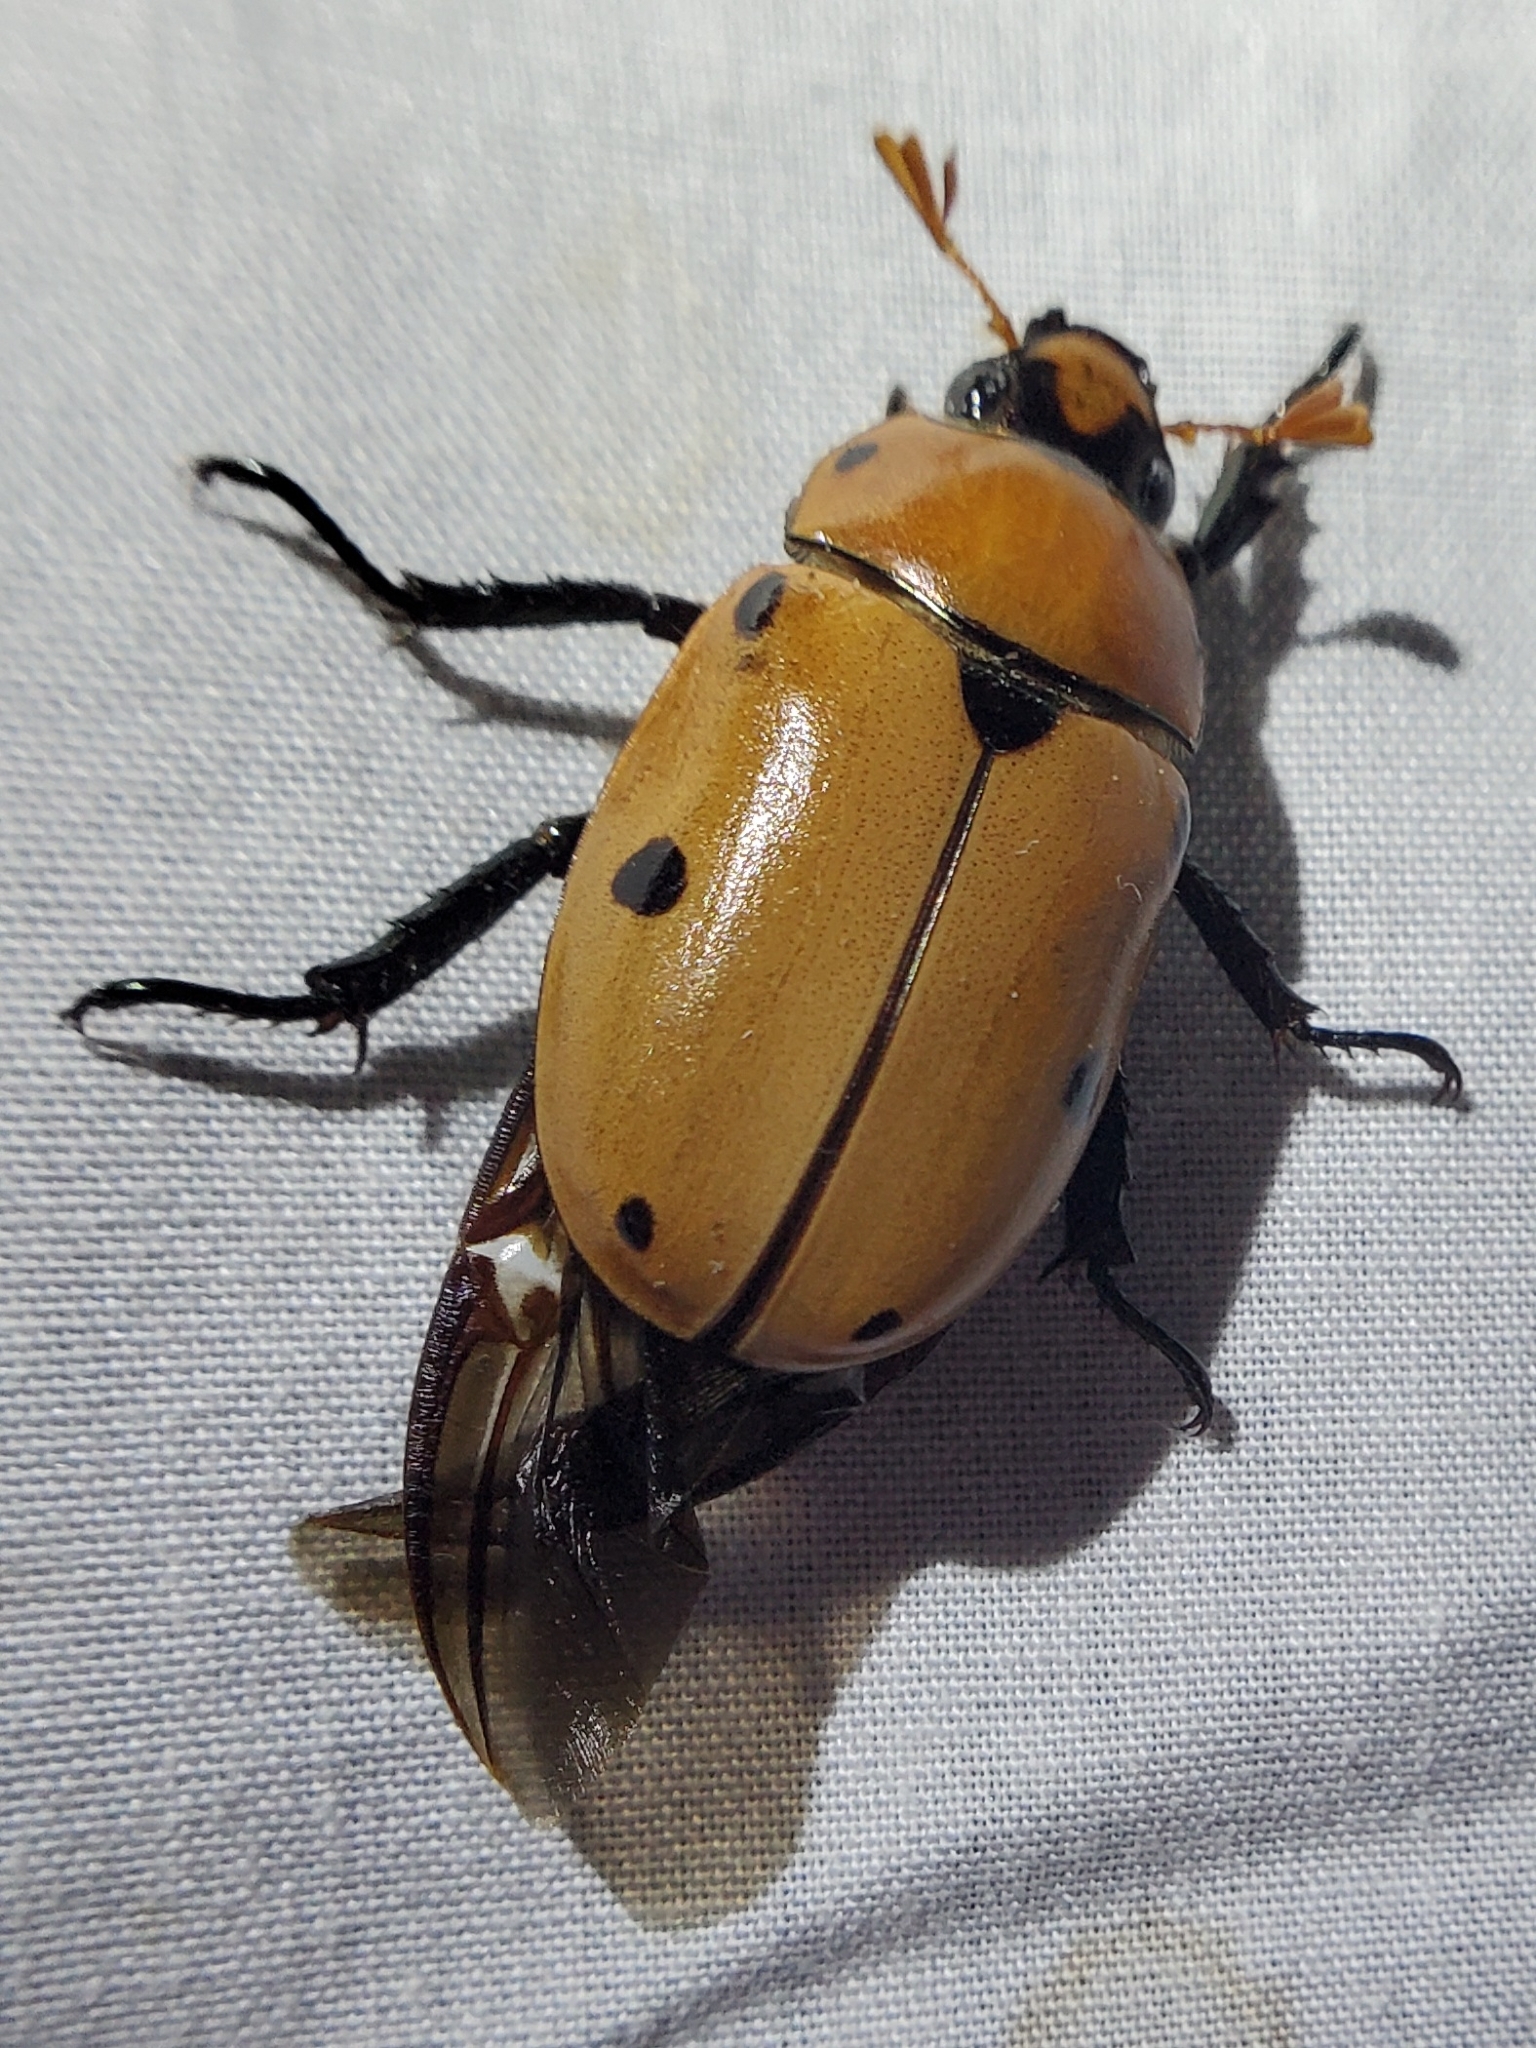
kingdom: Animalia
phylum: Arthropoda
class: Insecta
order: Coleoptera
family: Scarabaeidae
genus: Pelidnota
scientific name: Pelidnota punctata
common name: Grapevine beetle
